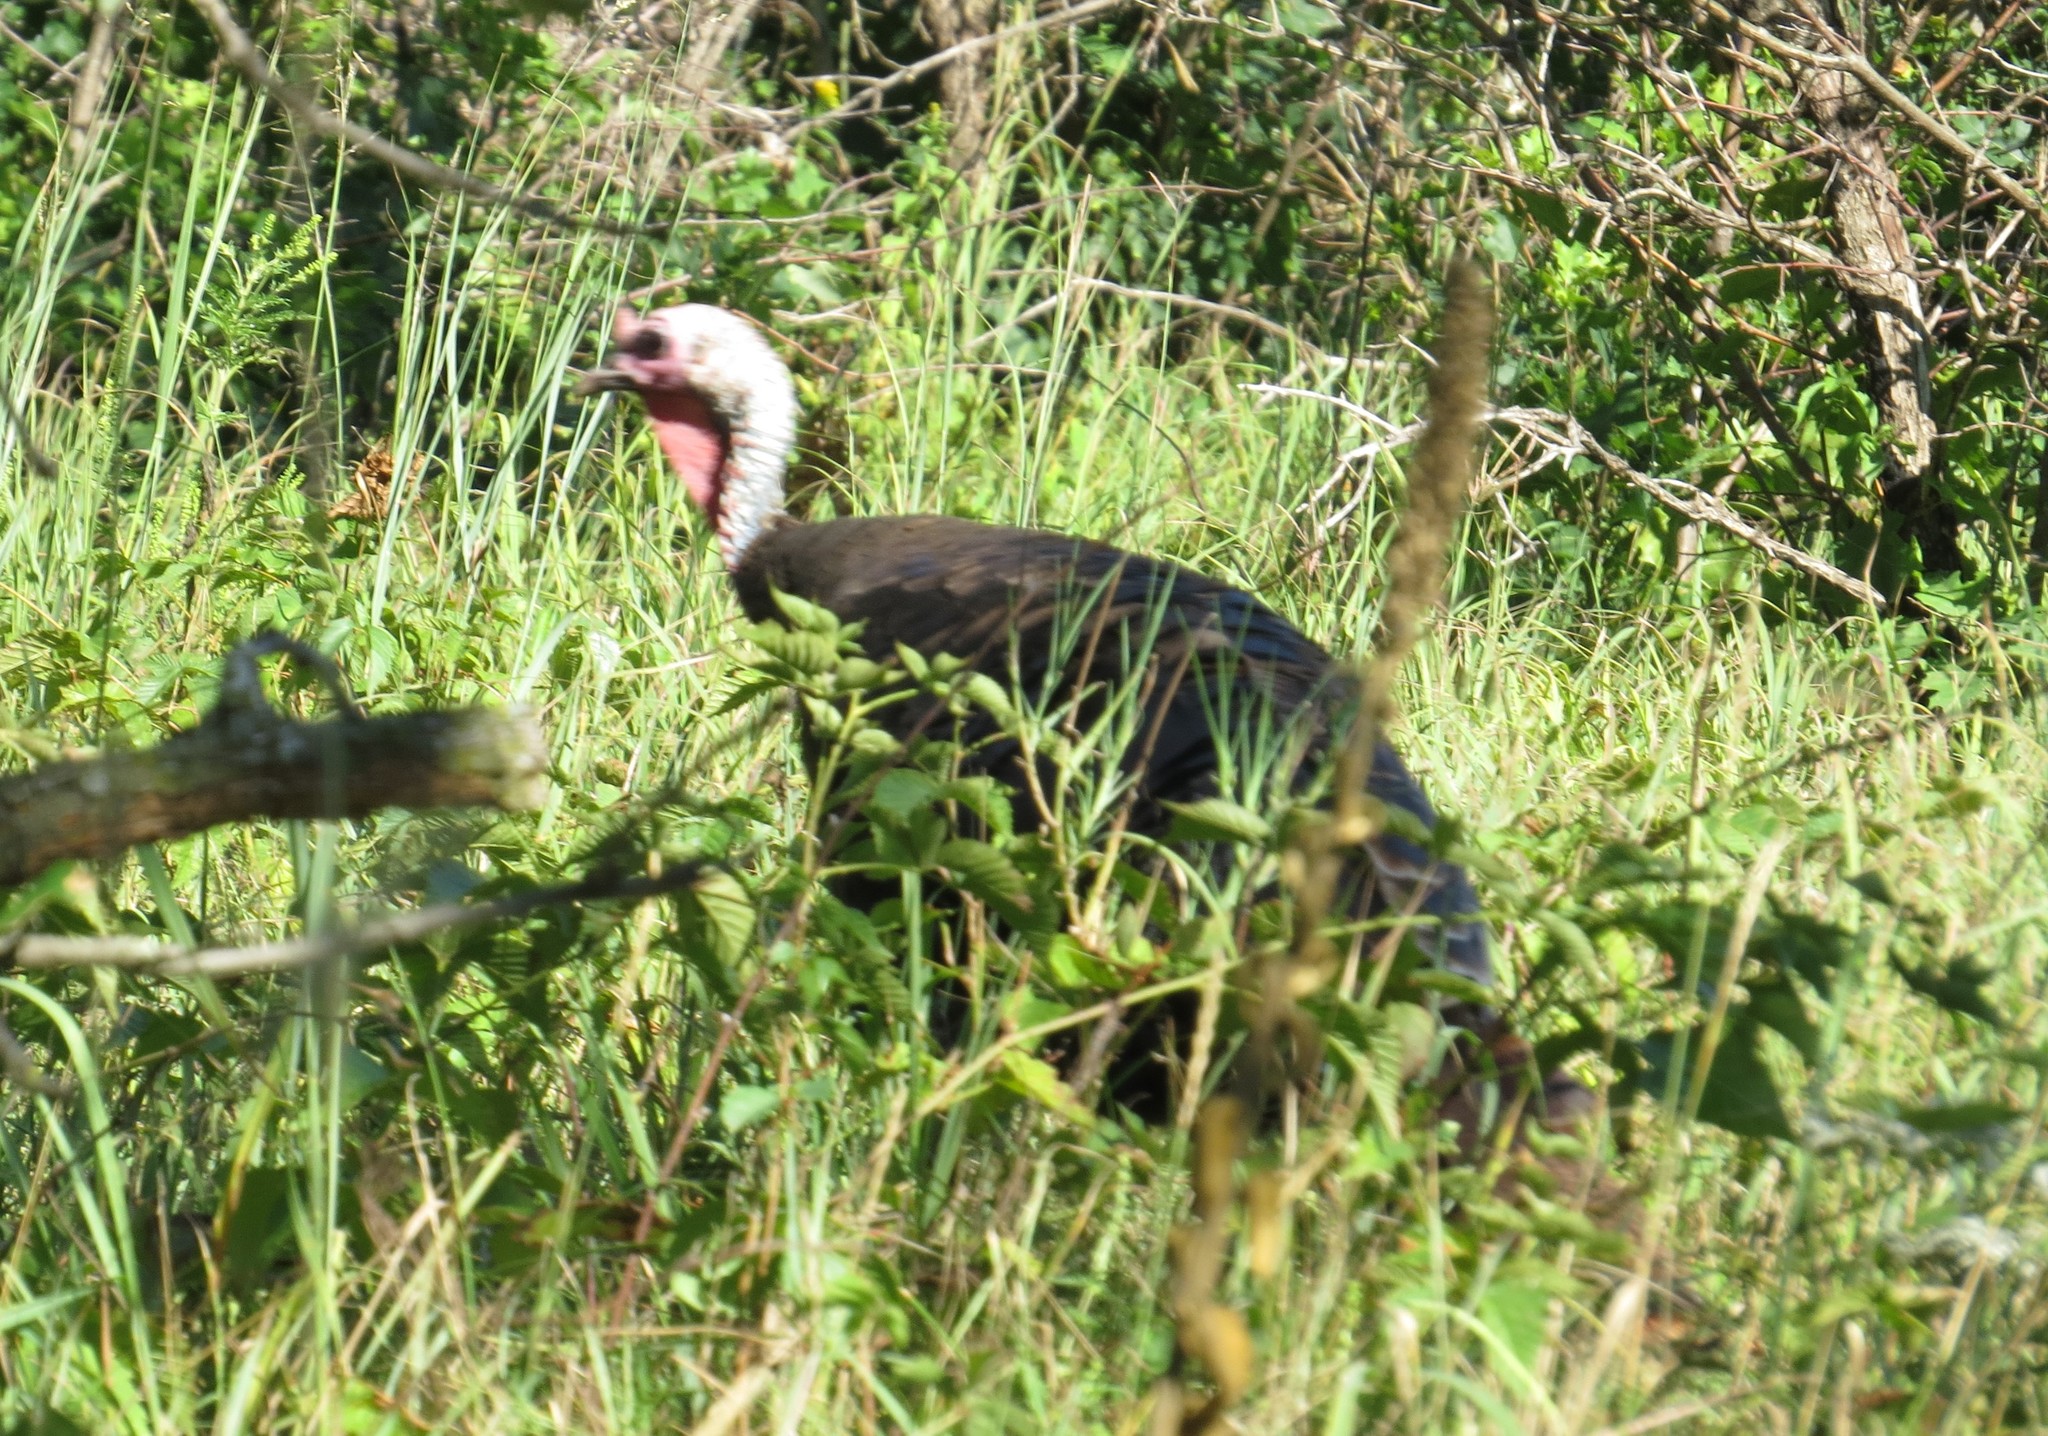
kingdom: Animalia
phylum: Chordata
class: Aves
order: Galliformes
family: Phasianidae
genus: Meleagris
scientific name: Meleagris gallopavo
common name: Wild turkey
